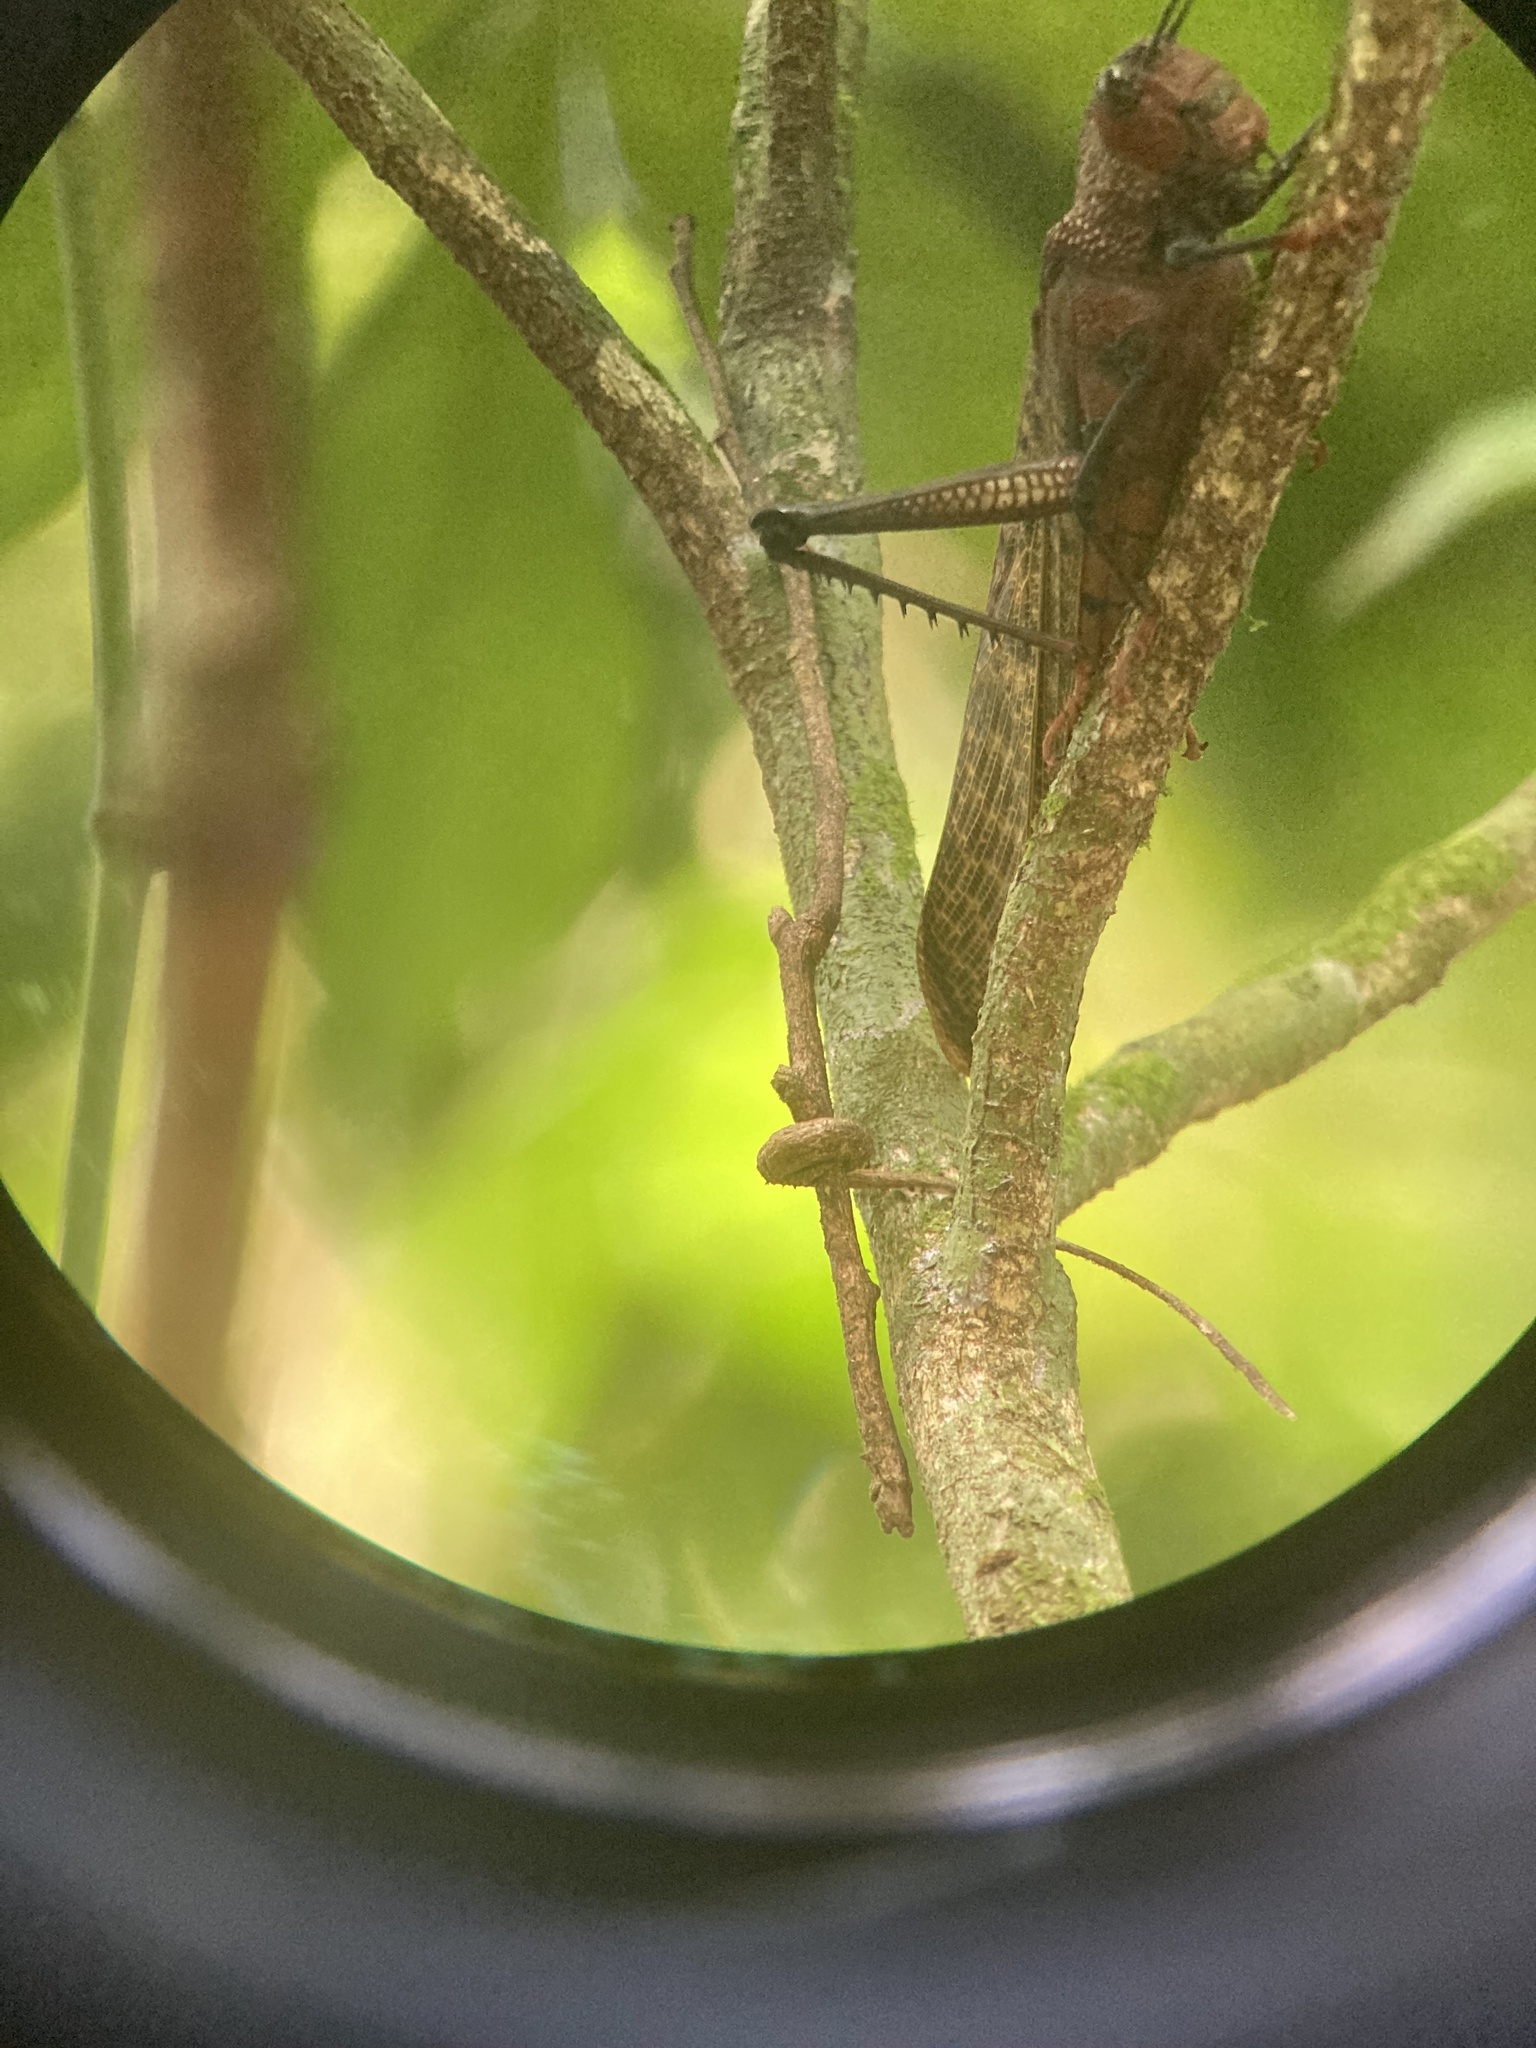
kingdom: Animalia
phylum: Arthropoda
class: Insecta
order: Orthoptera
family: Romaleidae
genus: Tropidacris
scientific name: Tropidacris cristata
